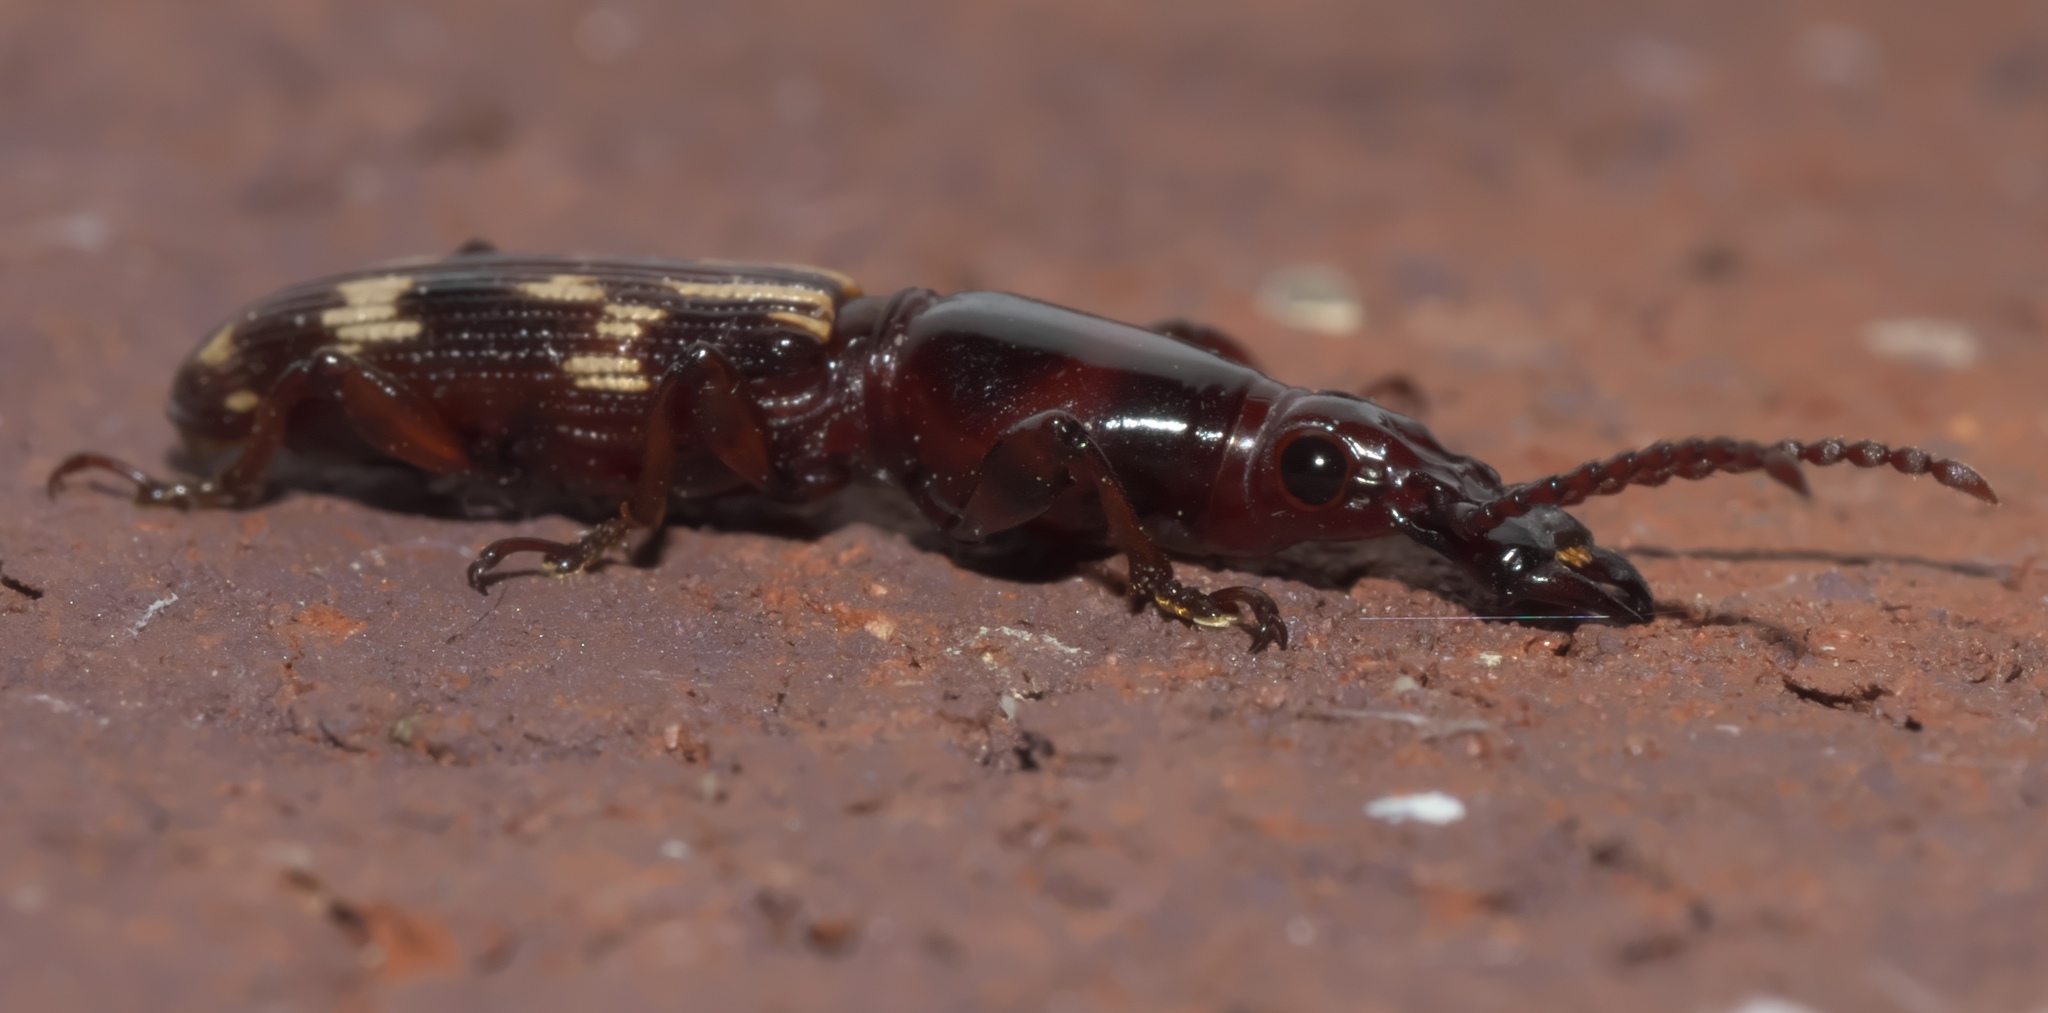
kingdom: Animalia
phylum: Arthropoda
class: Insecta
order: Coleoptera
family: Brentidae
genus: Arrenodes
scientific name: Arrenodes minutus
